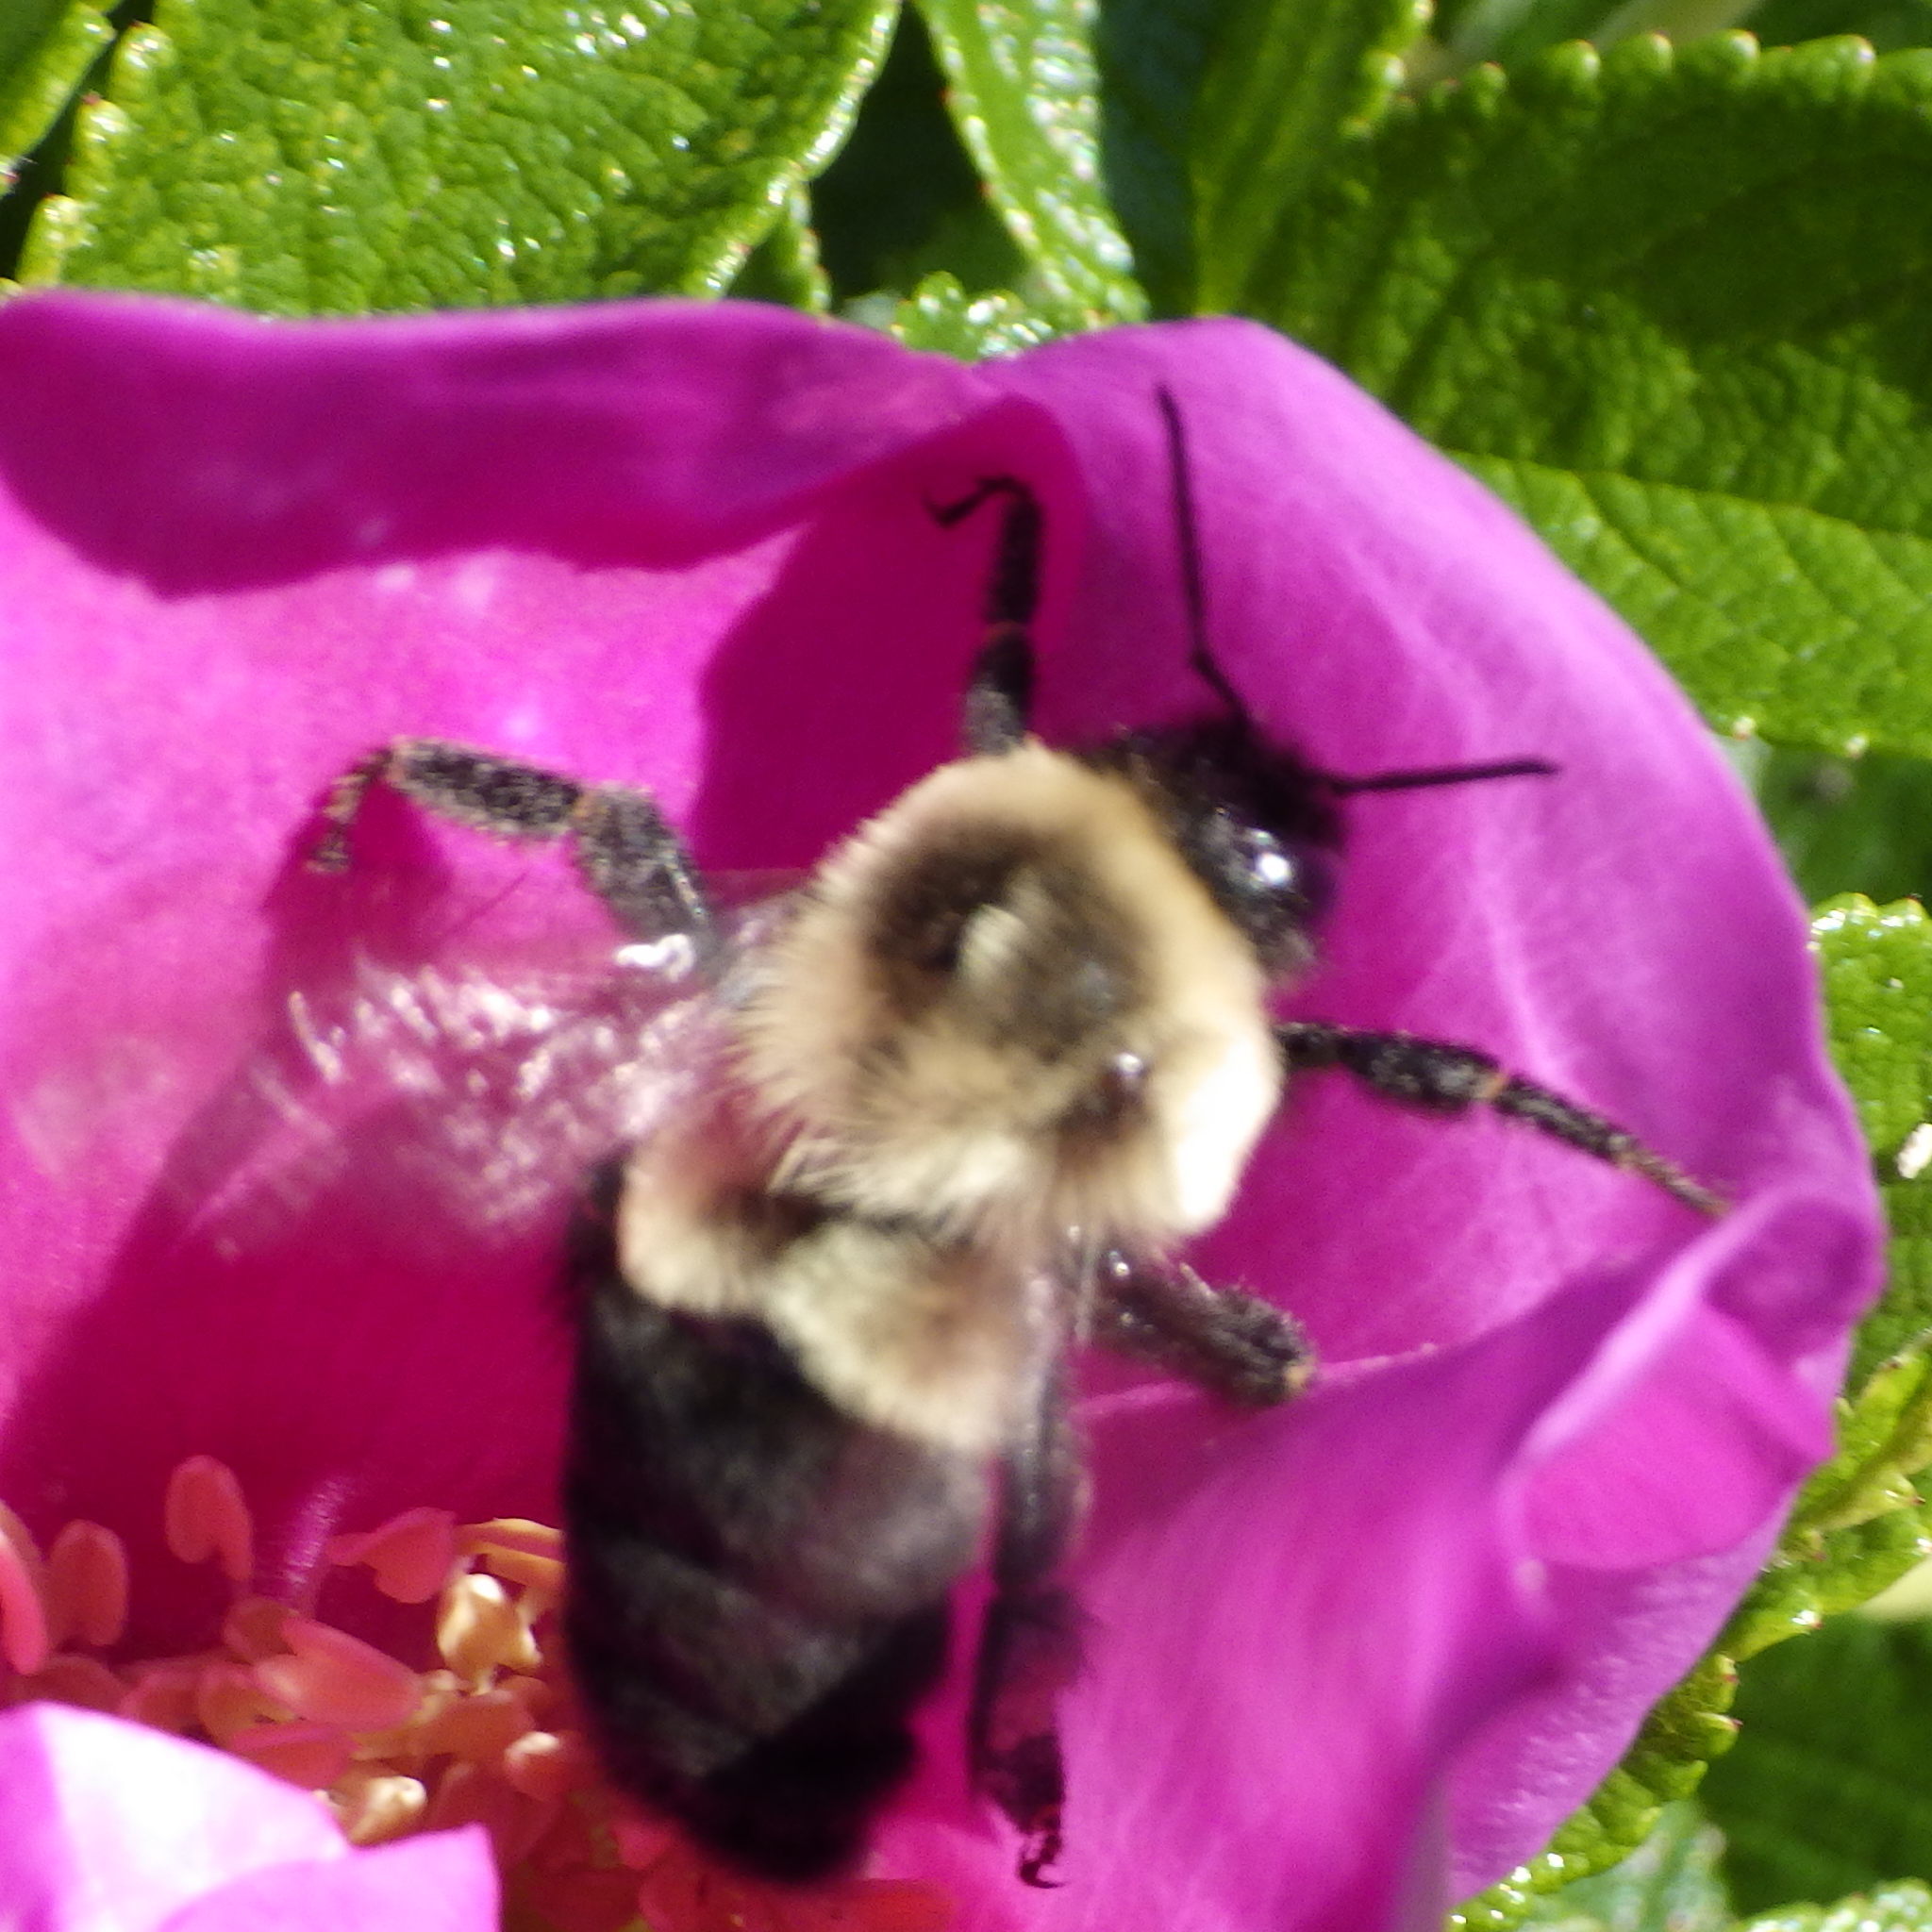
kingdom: Animalia
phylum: Arthropoda
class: Insecta
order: Hymenoptera
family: Apidae
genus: Bombus
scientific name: Bombus impatiens
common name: Common eastern bumble bee
